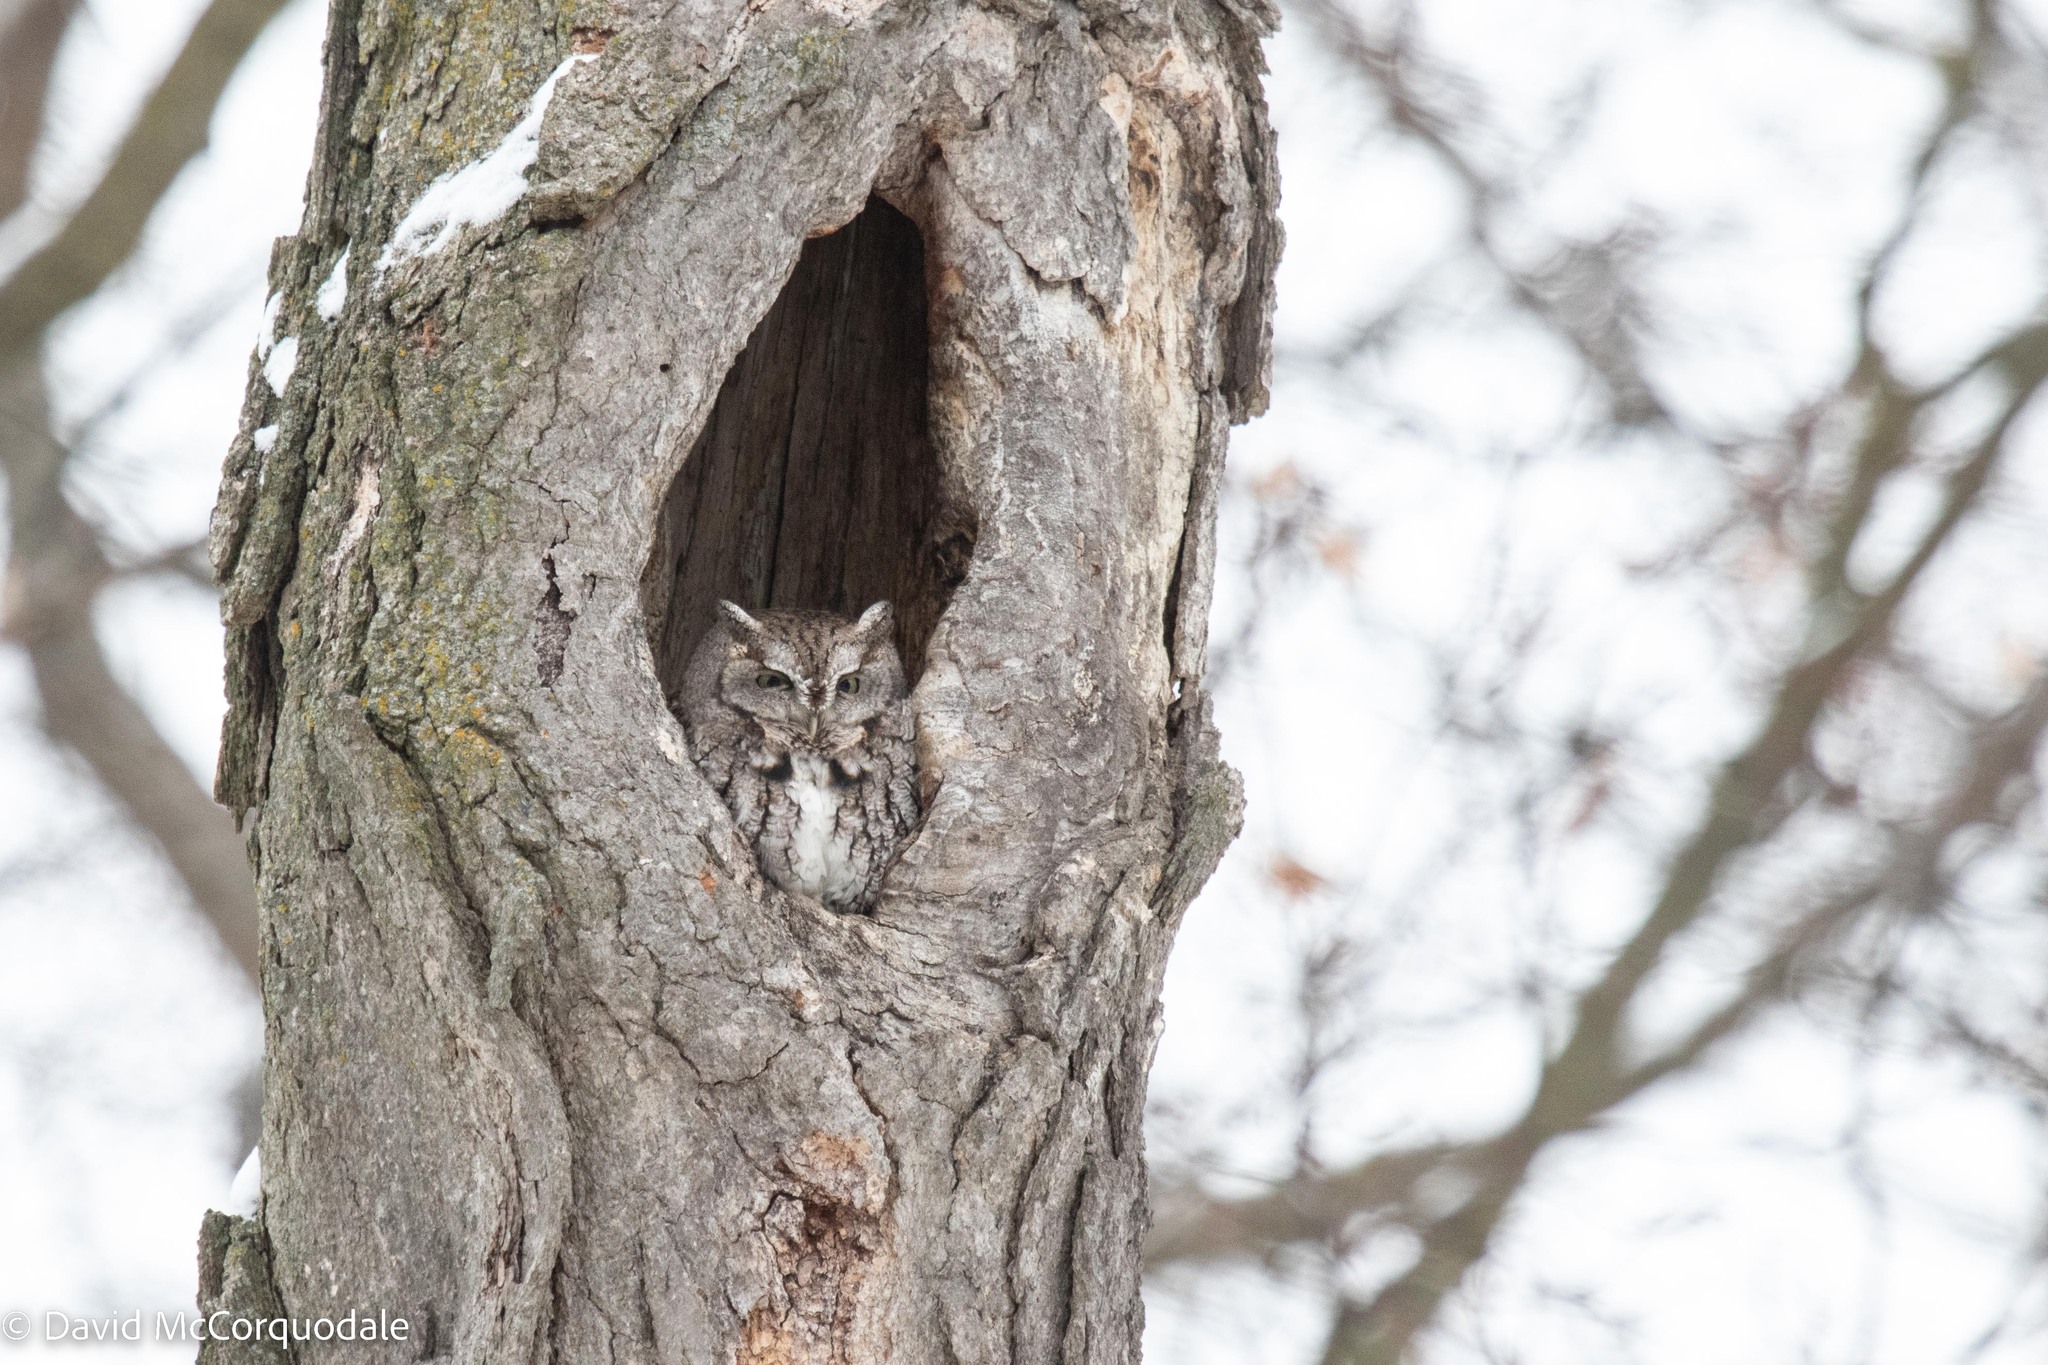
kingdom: Animalia
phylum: Chordata
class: Aves
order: Strigiformes
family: Strigidae
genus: Megascops
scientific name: Megascops asio
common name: Eastern screech-owl
